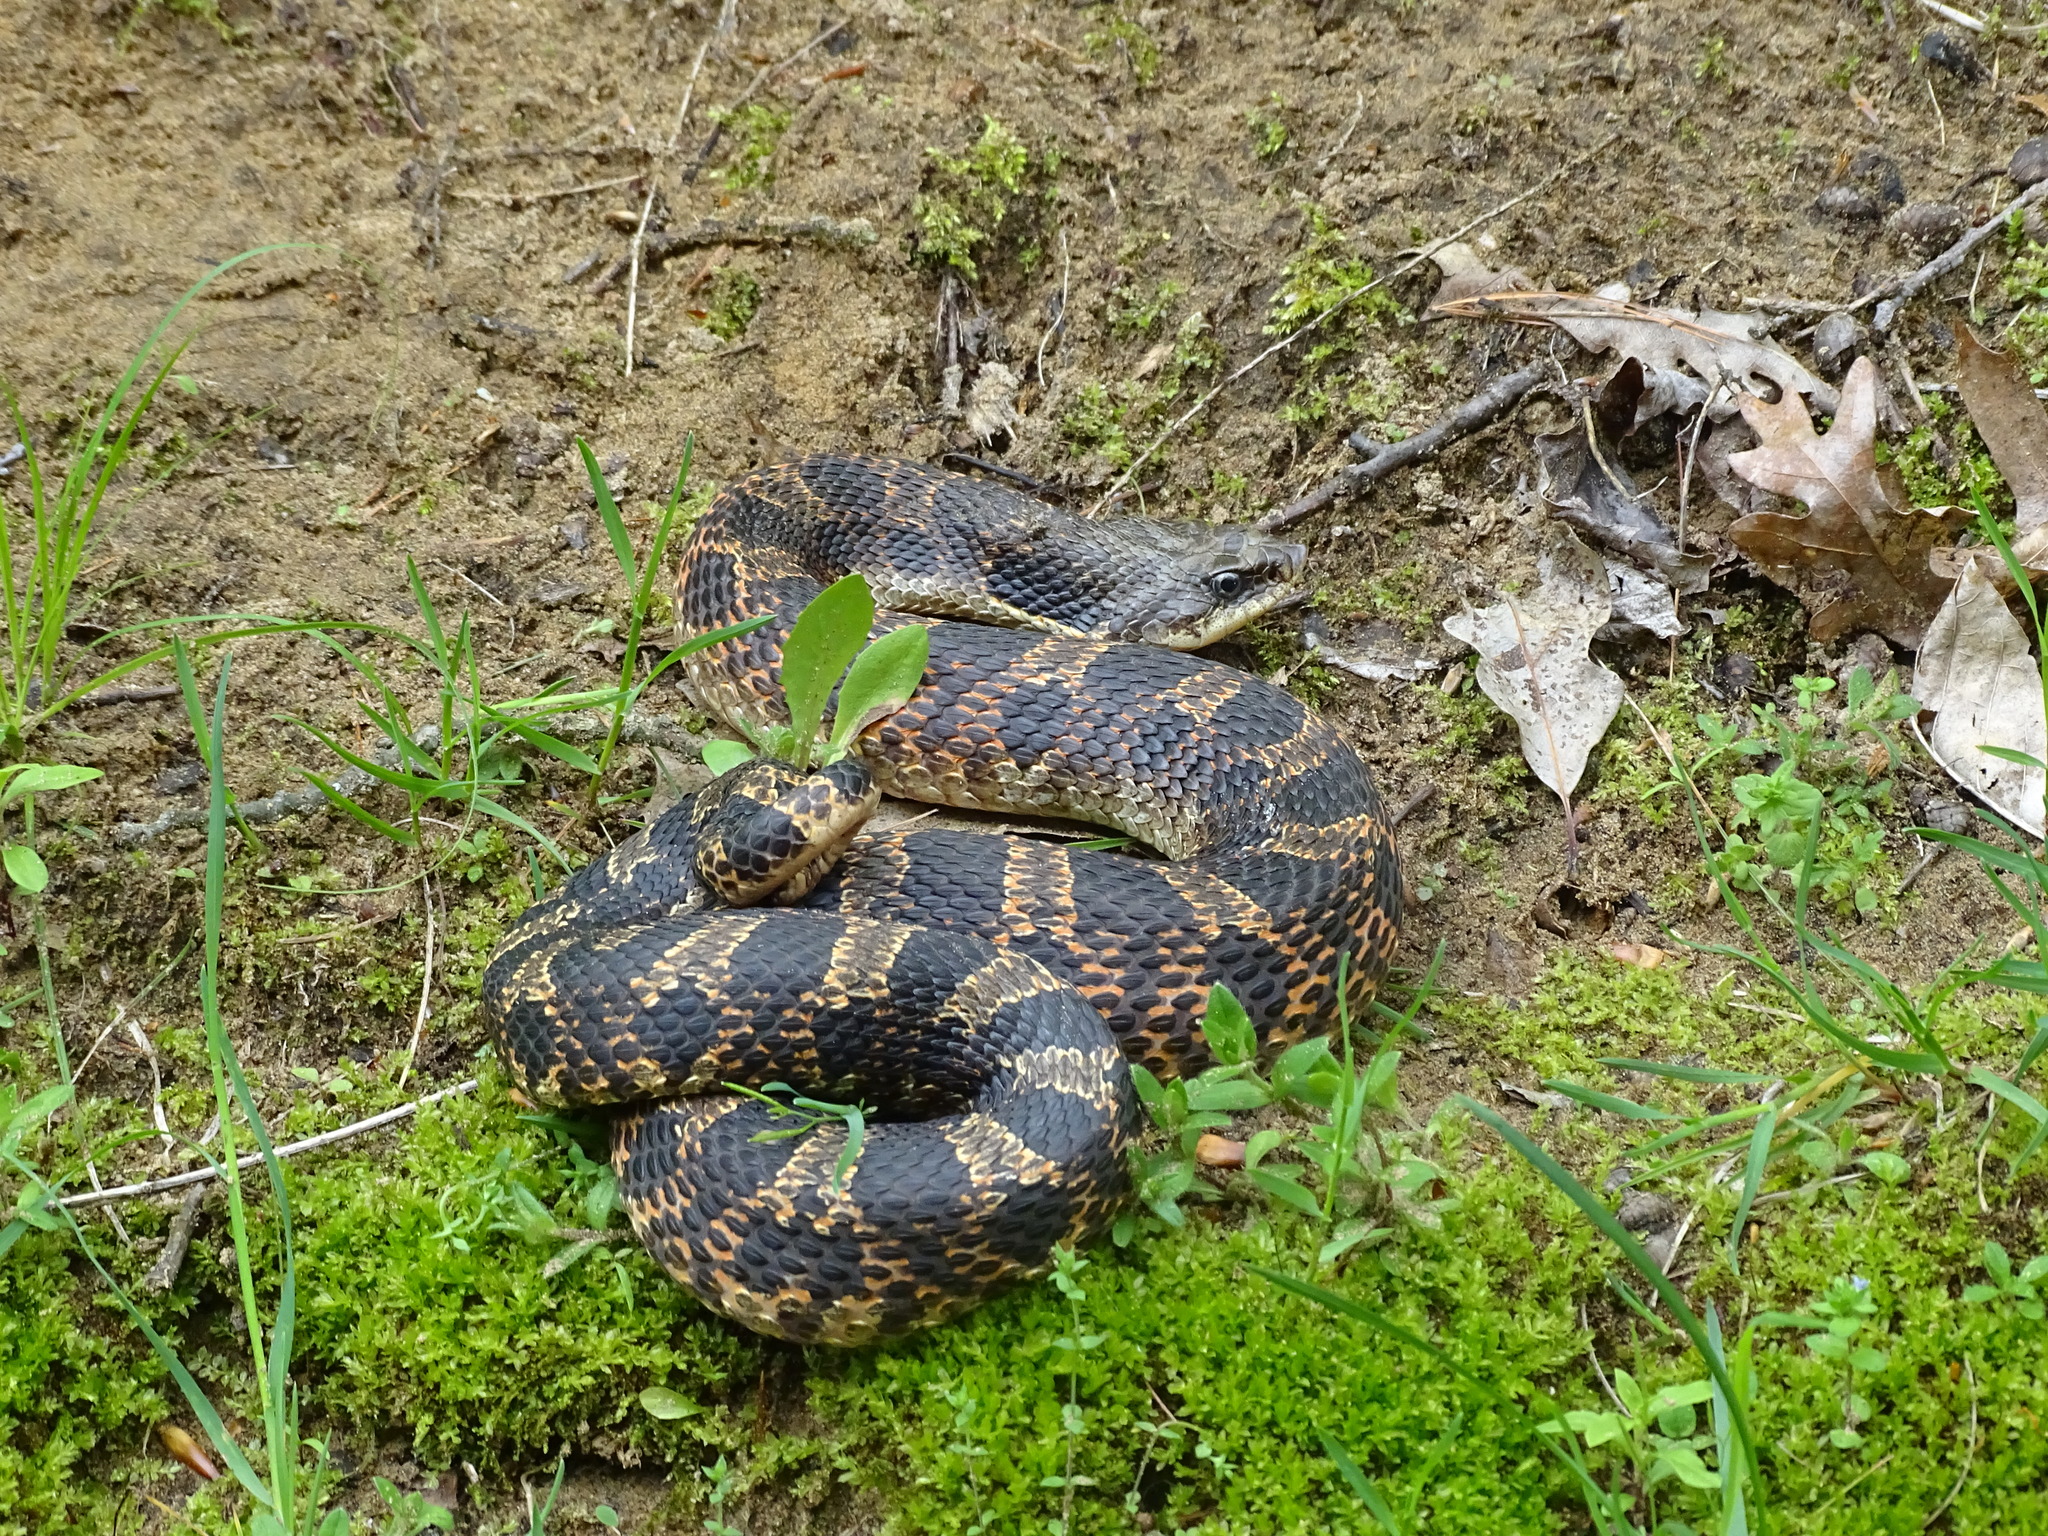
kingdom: Animalia
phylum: Chordata
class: Squamata
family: Colubridae
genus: Heterodon
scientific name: Heterodon platirhinos
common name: Eastern hognose snake
